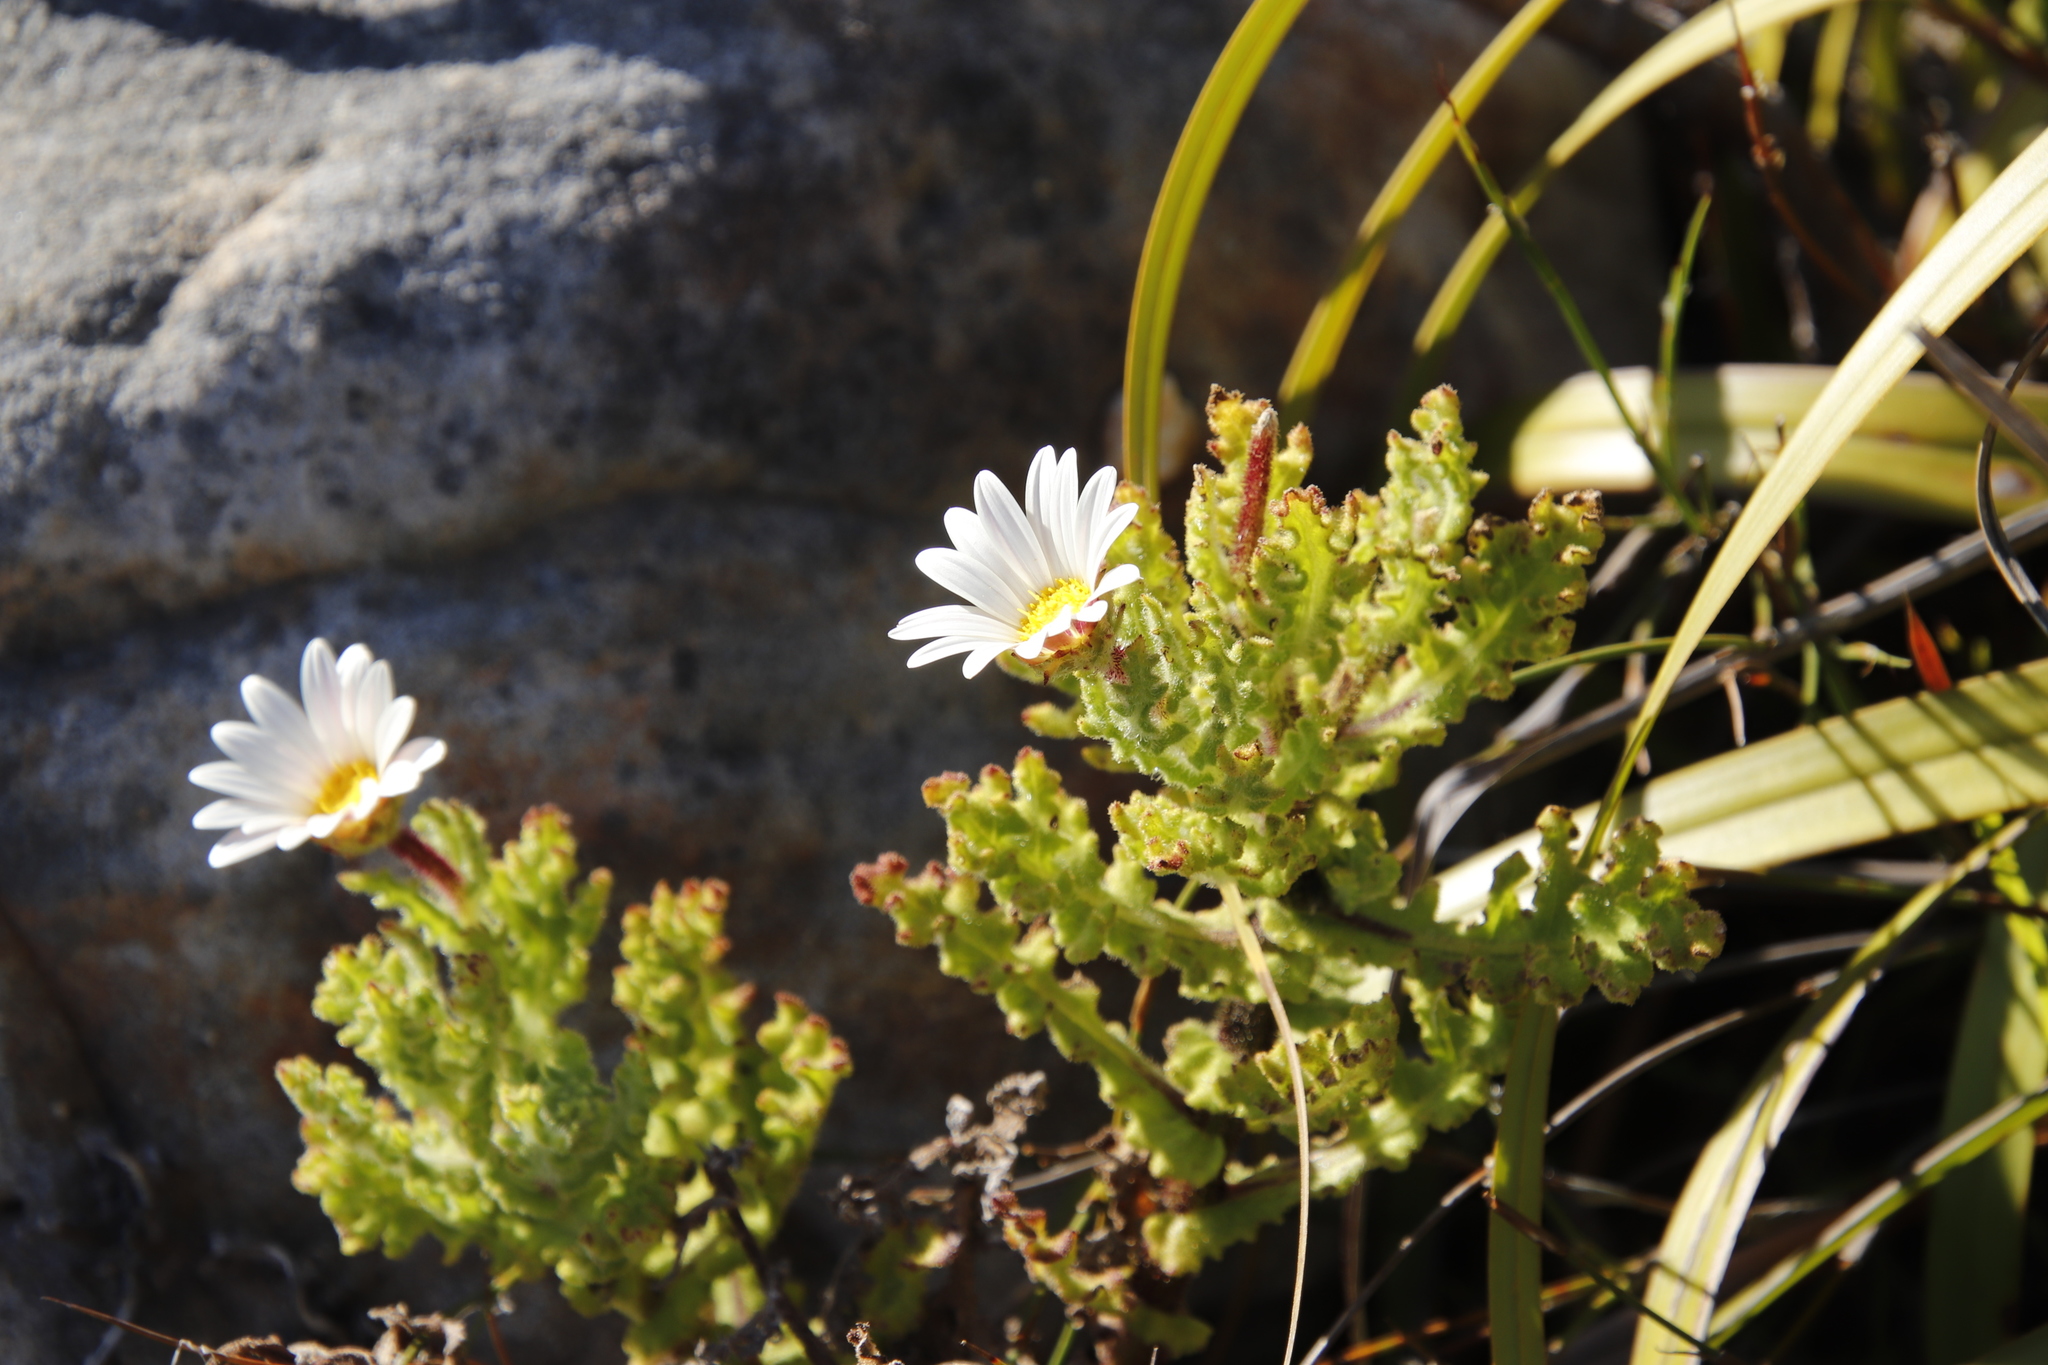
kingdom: Plantae
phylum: Tracheophyta
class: Magnoliopsida
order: Asterales
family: Asteraceae
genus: Arctotis
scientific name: Arctotis aspera
